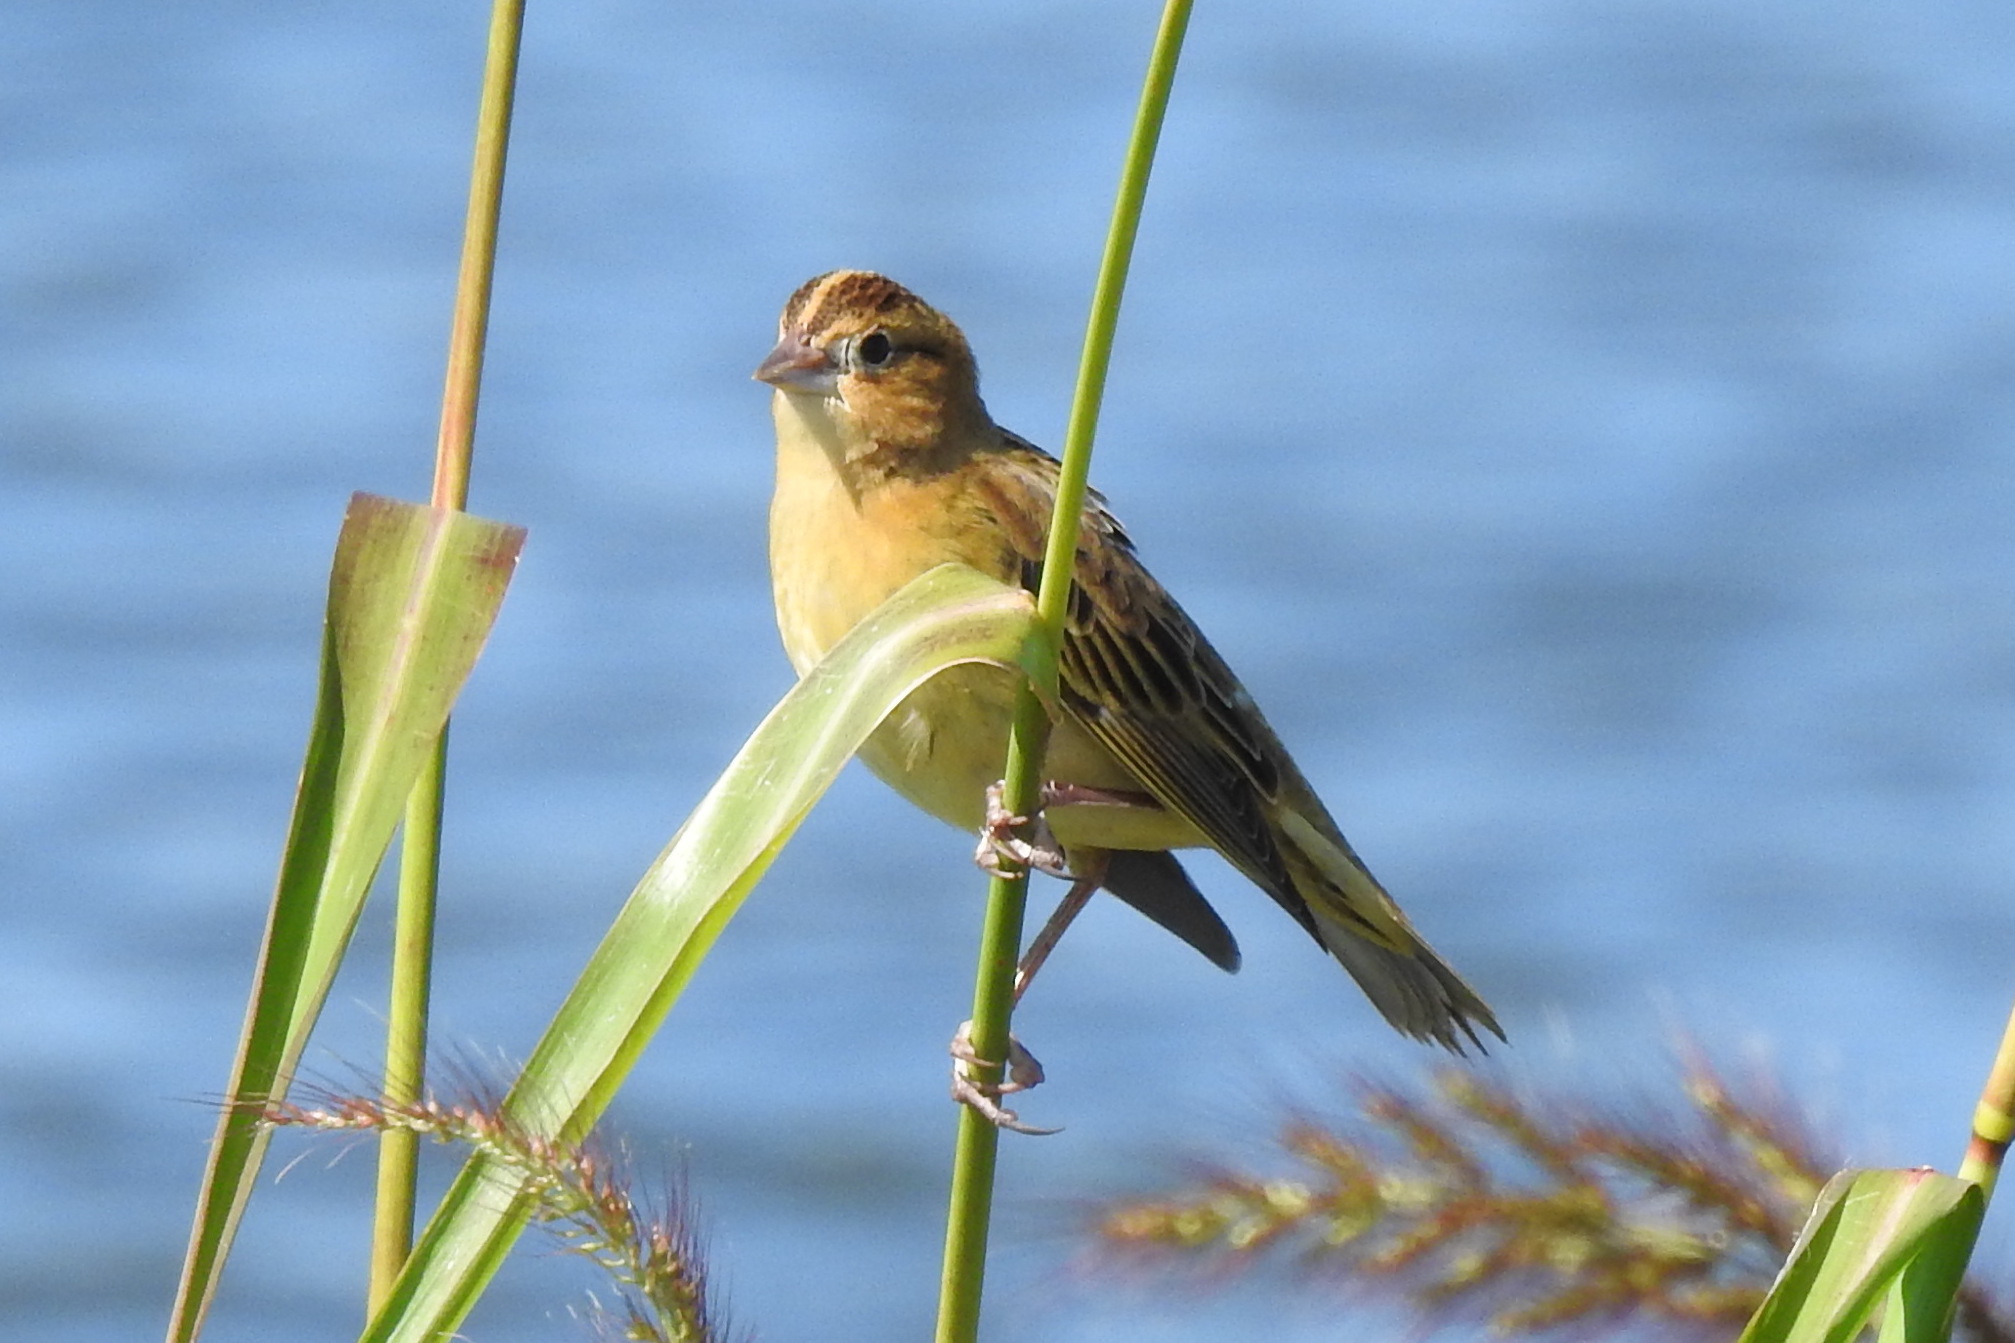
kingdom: Animalia
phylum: Chordata
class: Aves
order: Passeriformes
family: Icteridae
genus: Dolichonyx
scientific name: Dolichonyx oryzivorus
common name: Bobolink
